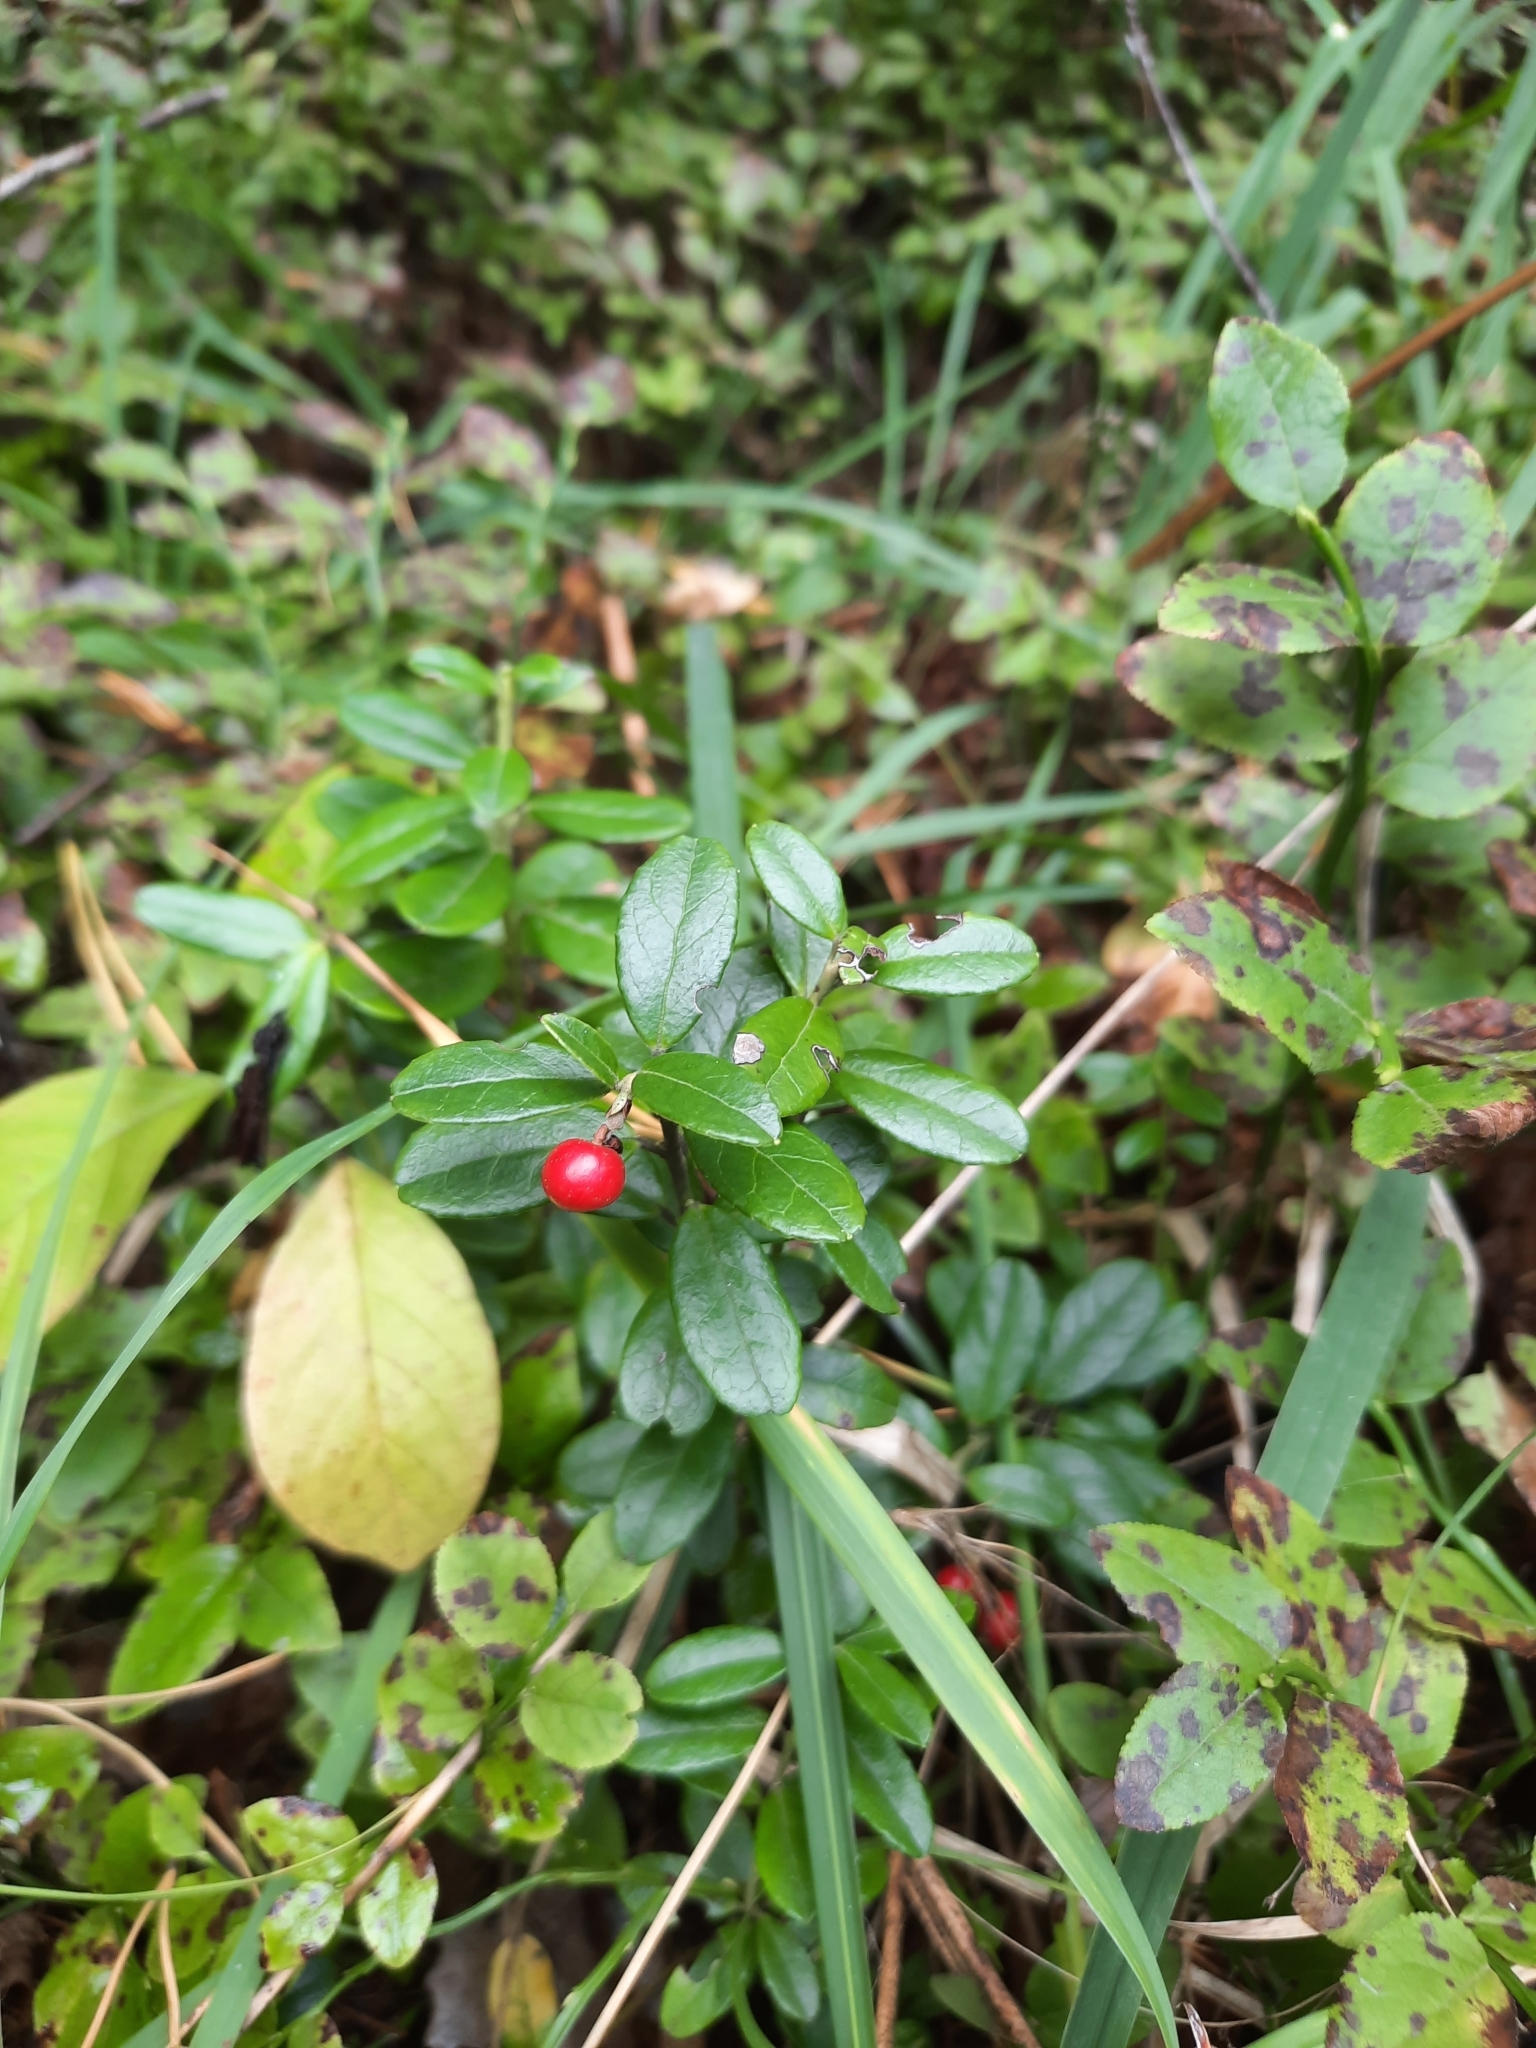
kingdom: Plantae
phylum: Tracheophyta
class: Magnoliopsida
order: Ericales
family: Ericaceae
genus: Vaccinium
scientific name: Vaccinium vitis-idaea
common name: Cowberry
